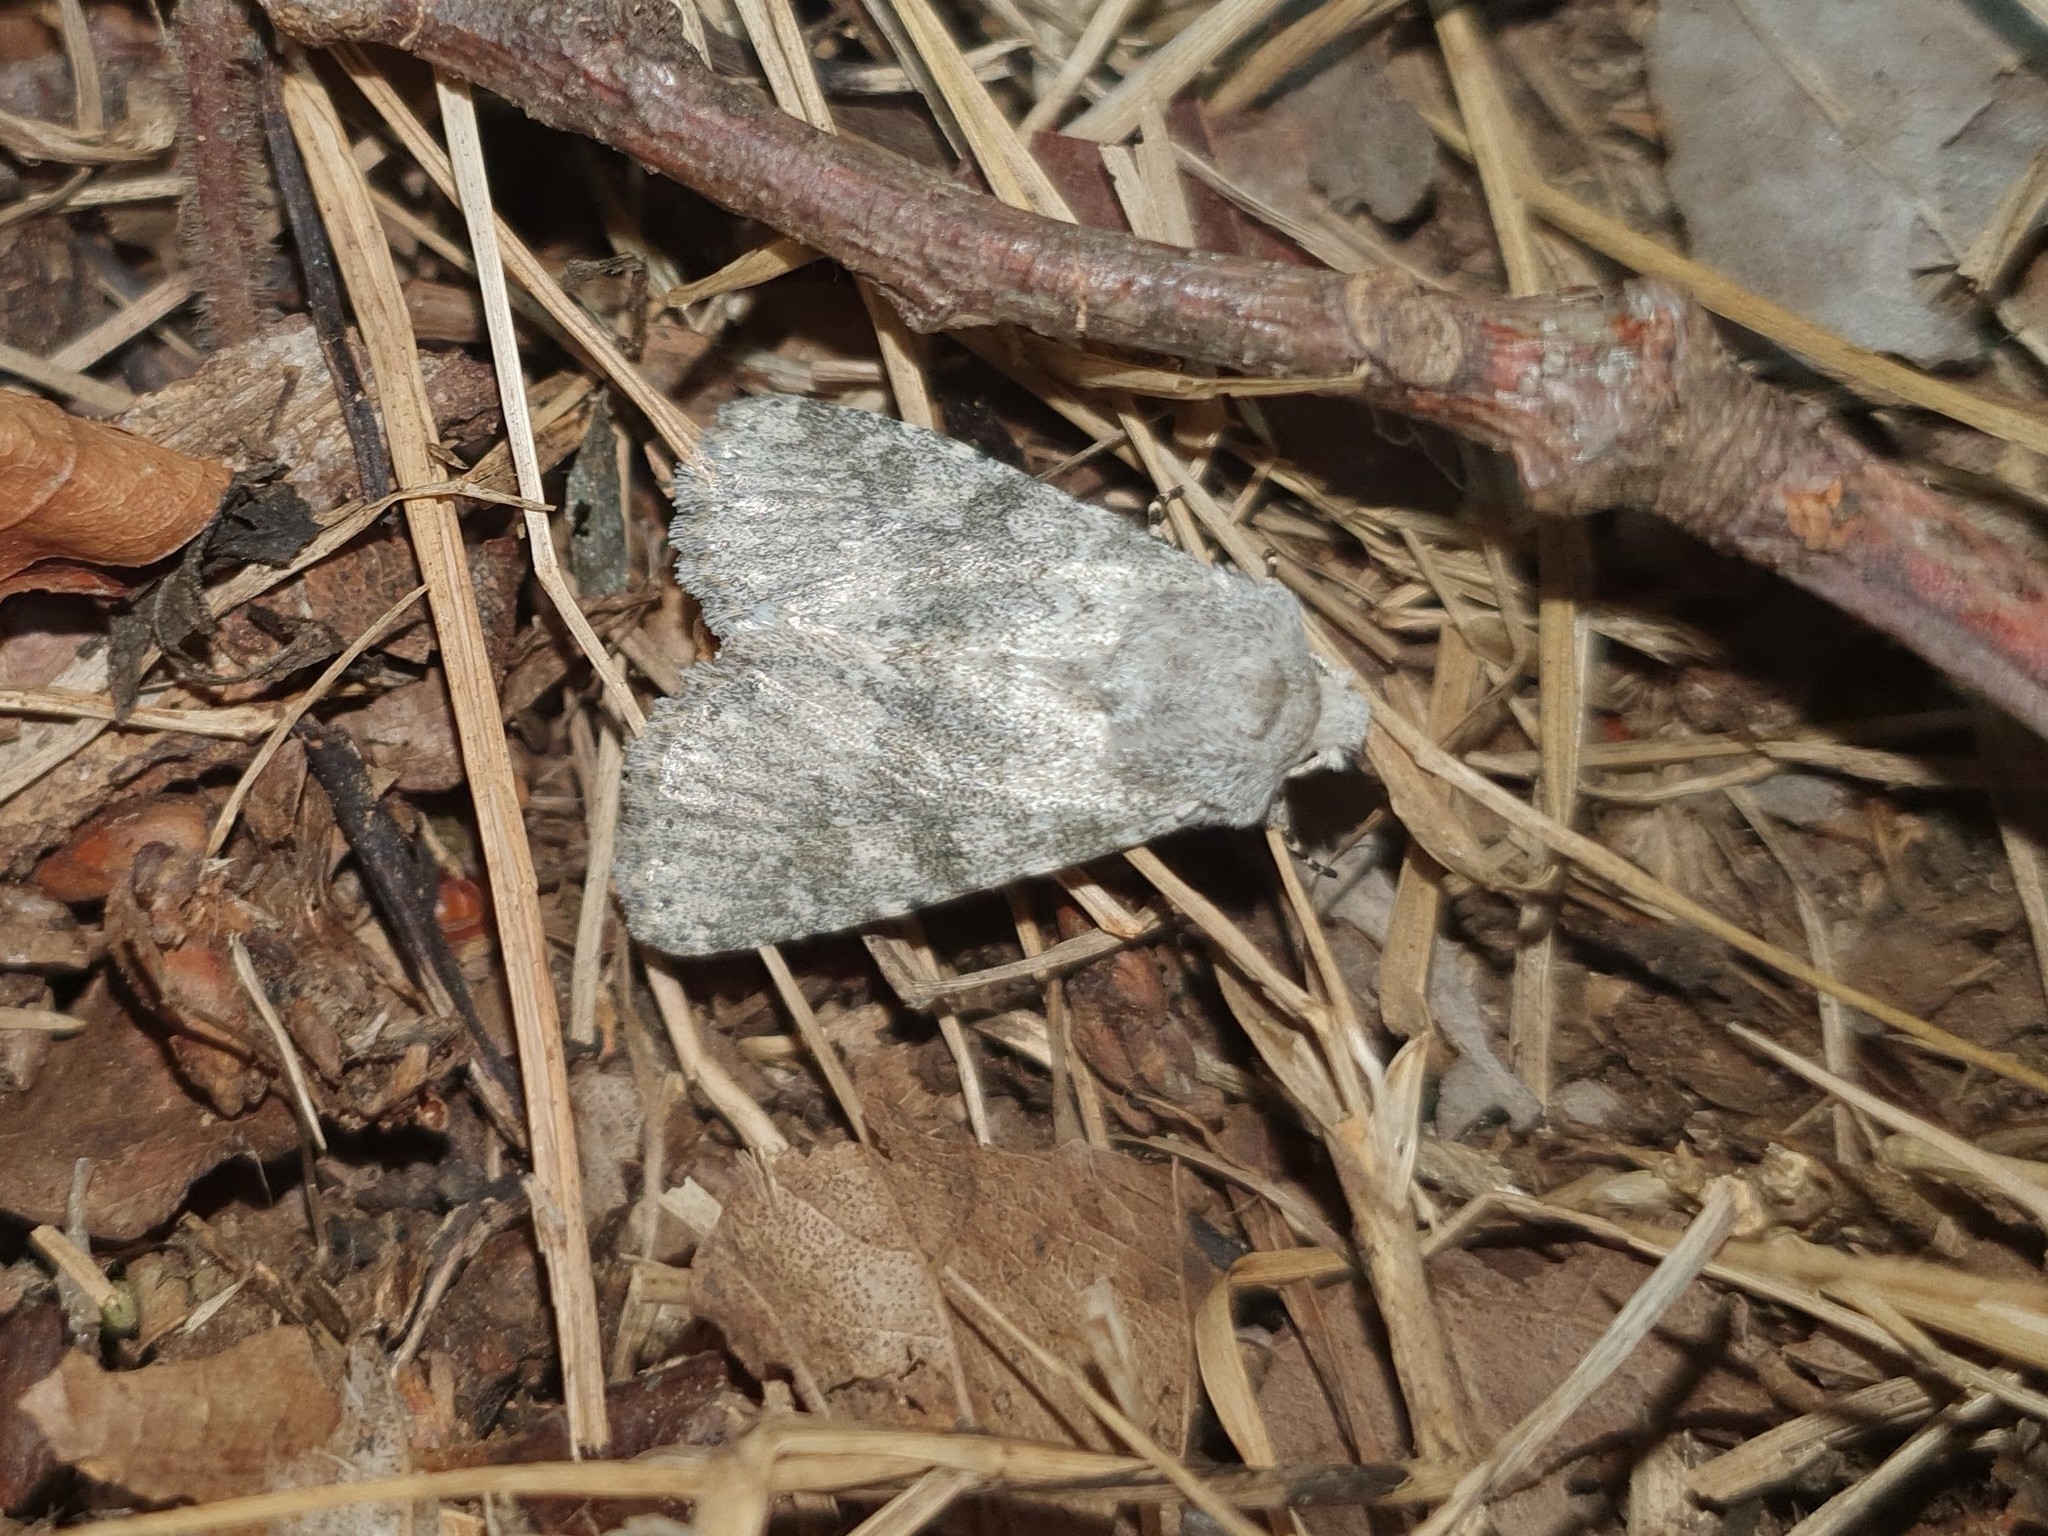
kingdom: Animalia
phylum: Arthropoda
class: Insecta
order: Lepidoptera
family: Noctuidae
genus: Polymixis
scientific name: Polymixis dubia
